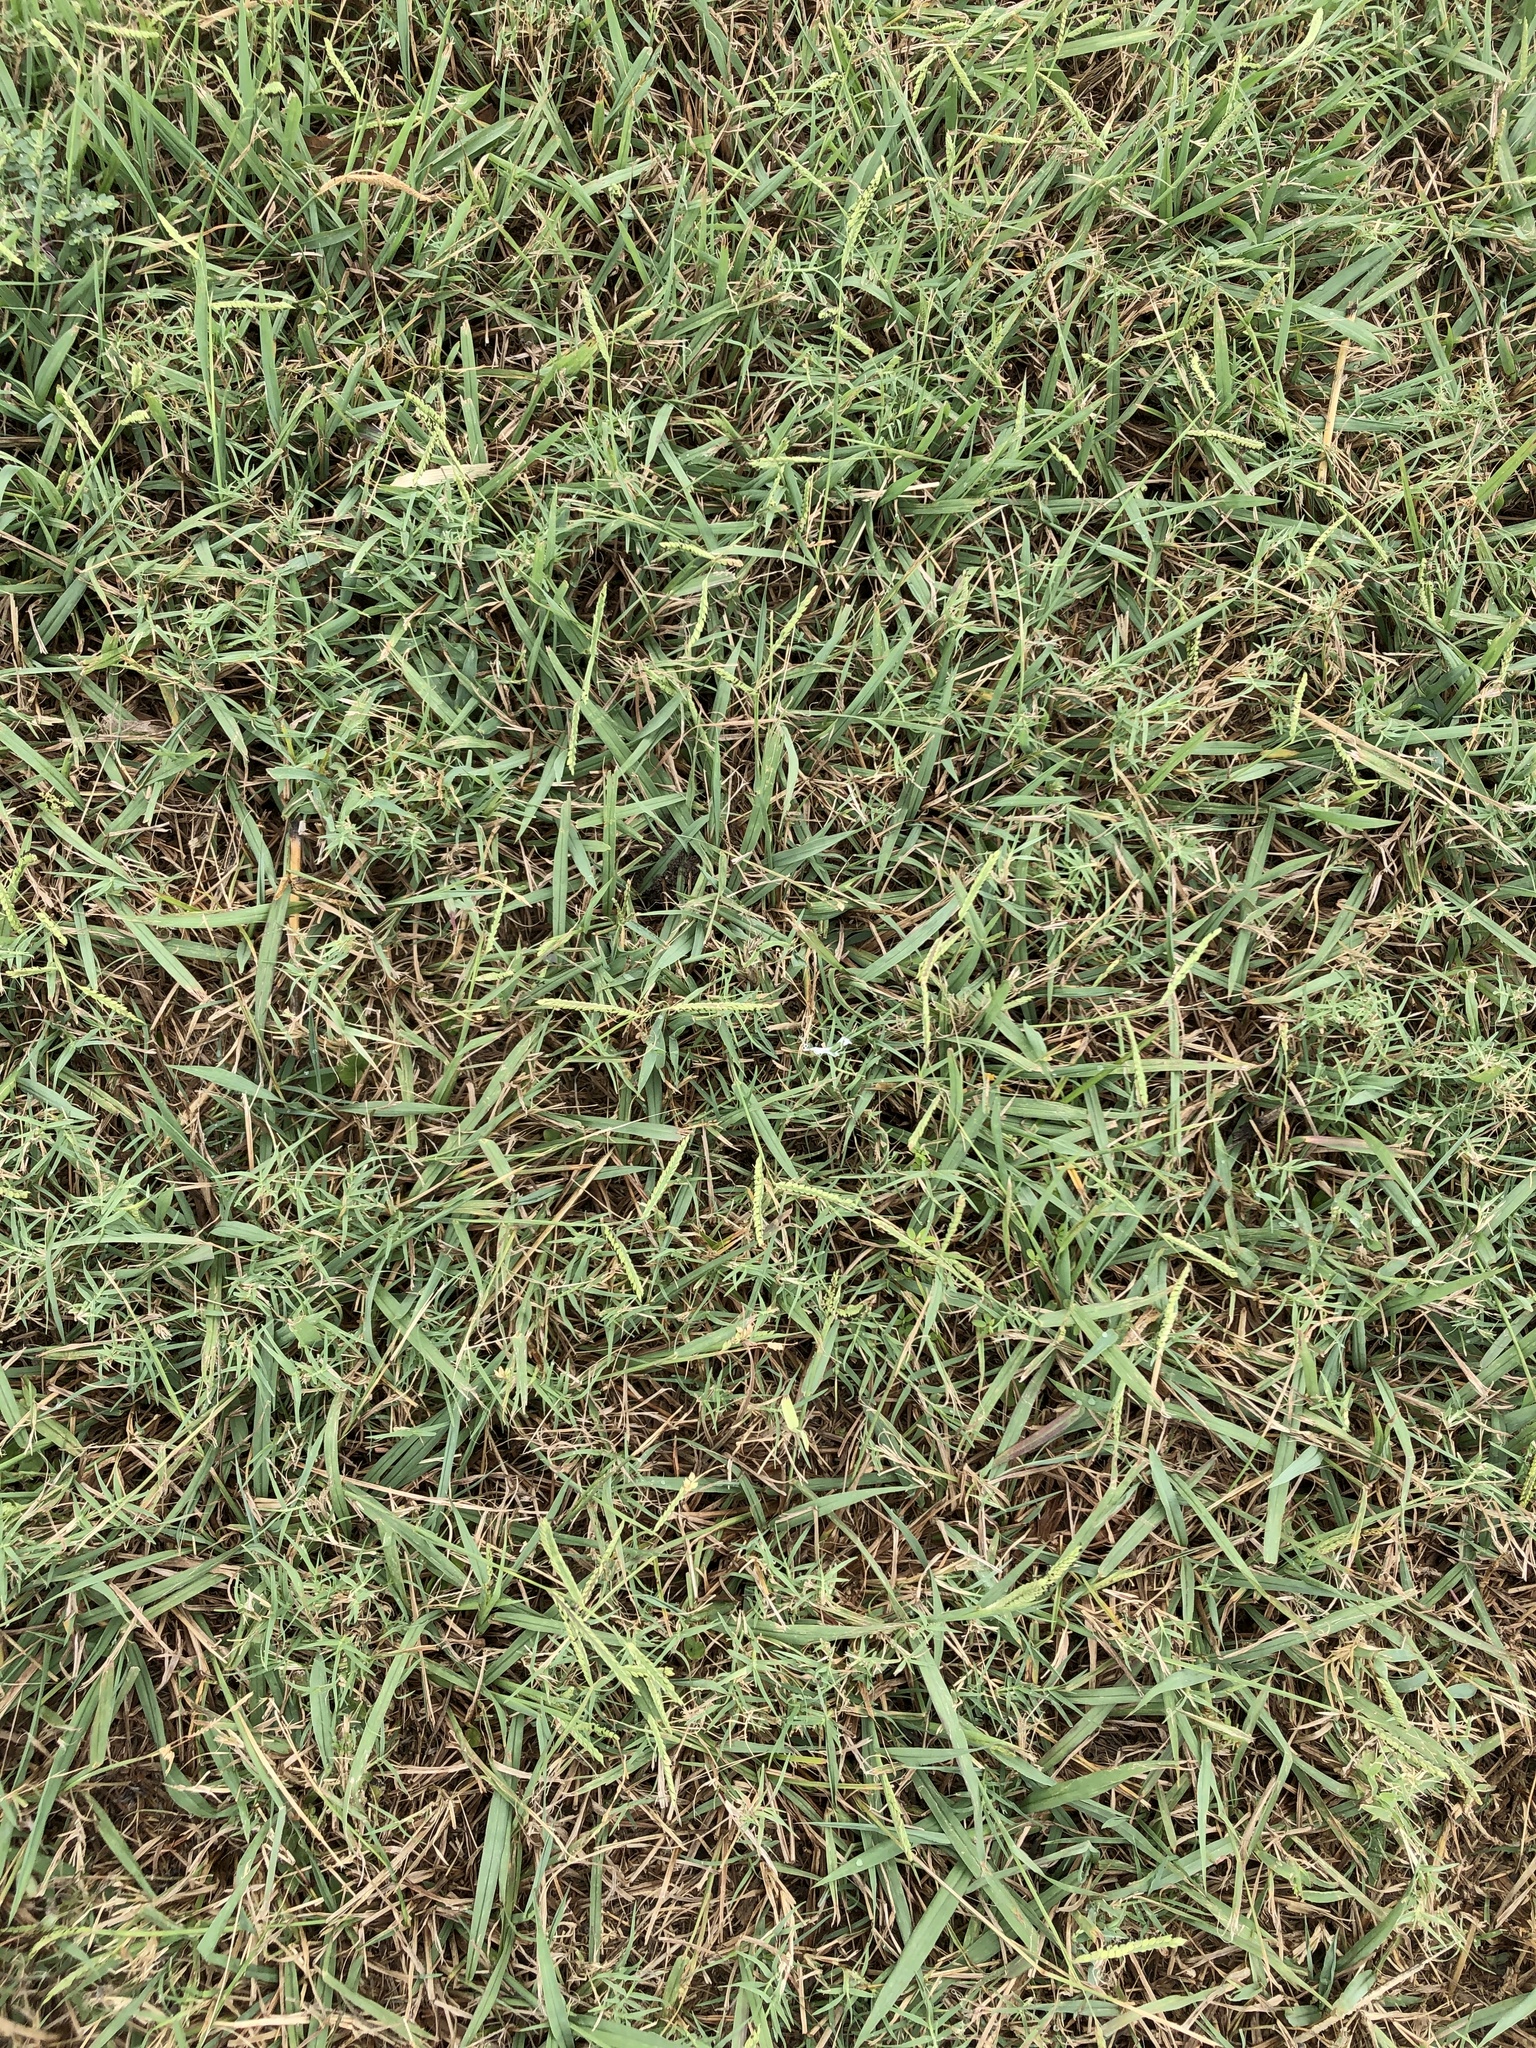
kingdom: Plantae
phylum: Tracheophyta
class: Liliopsida
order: Poales
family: Poaceae
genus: Paspalum
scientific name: Paspalum dilatatum
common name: Dallisgrass
